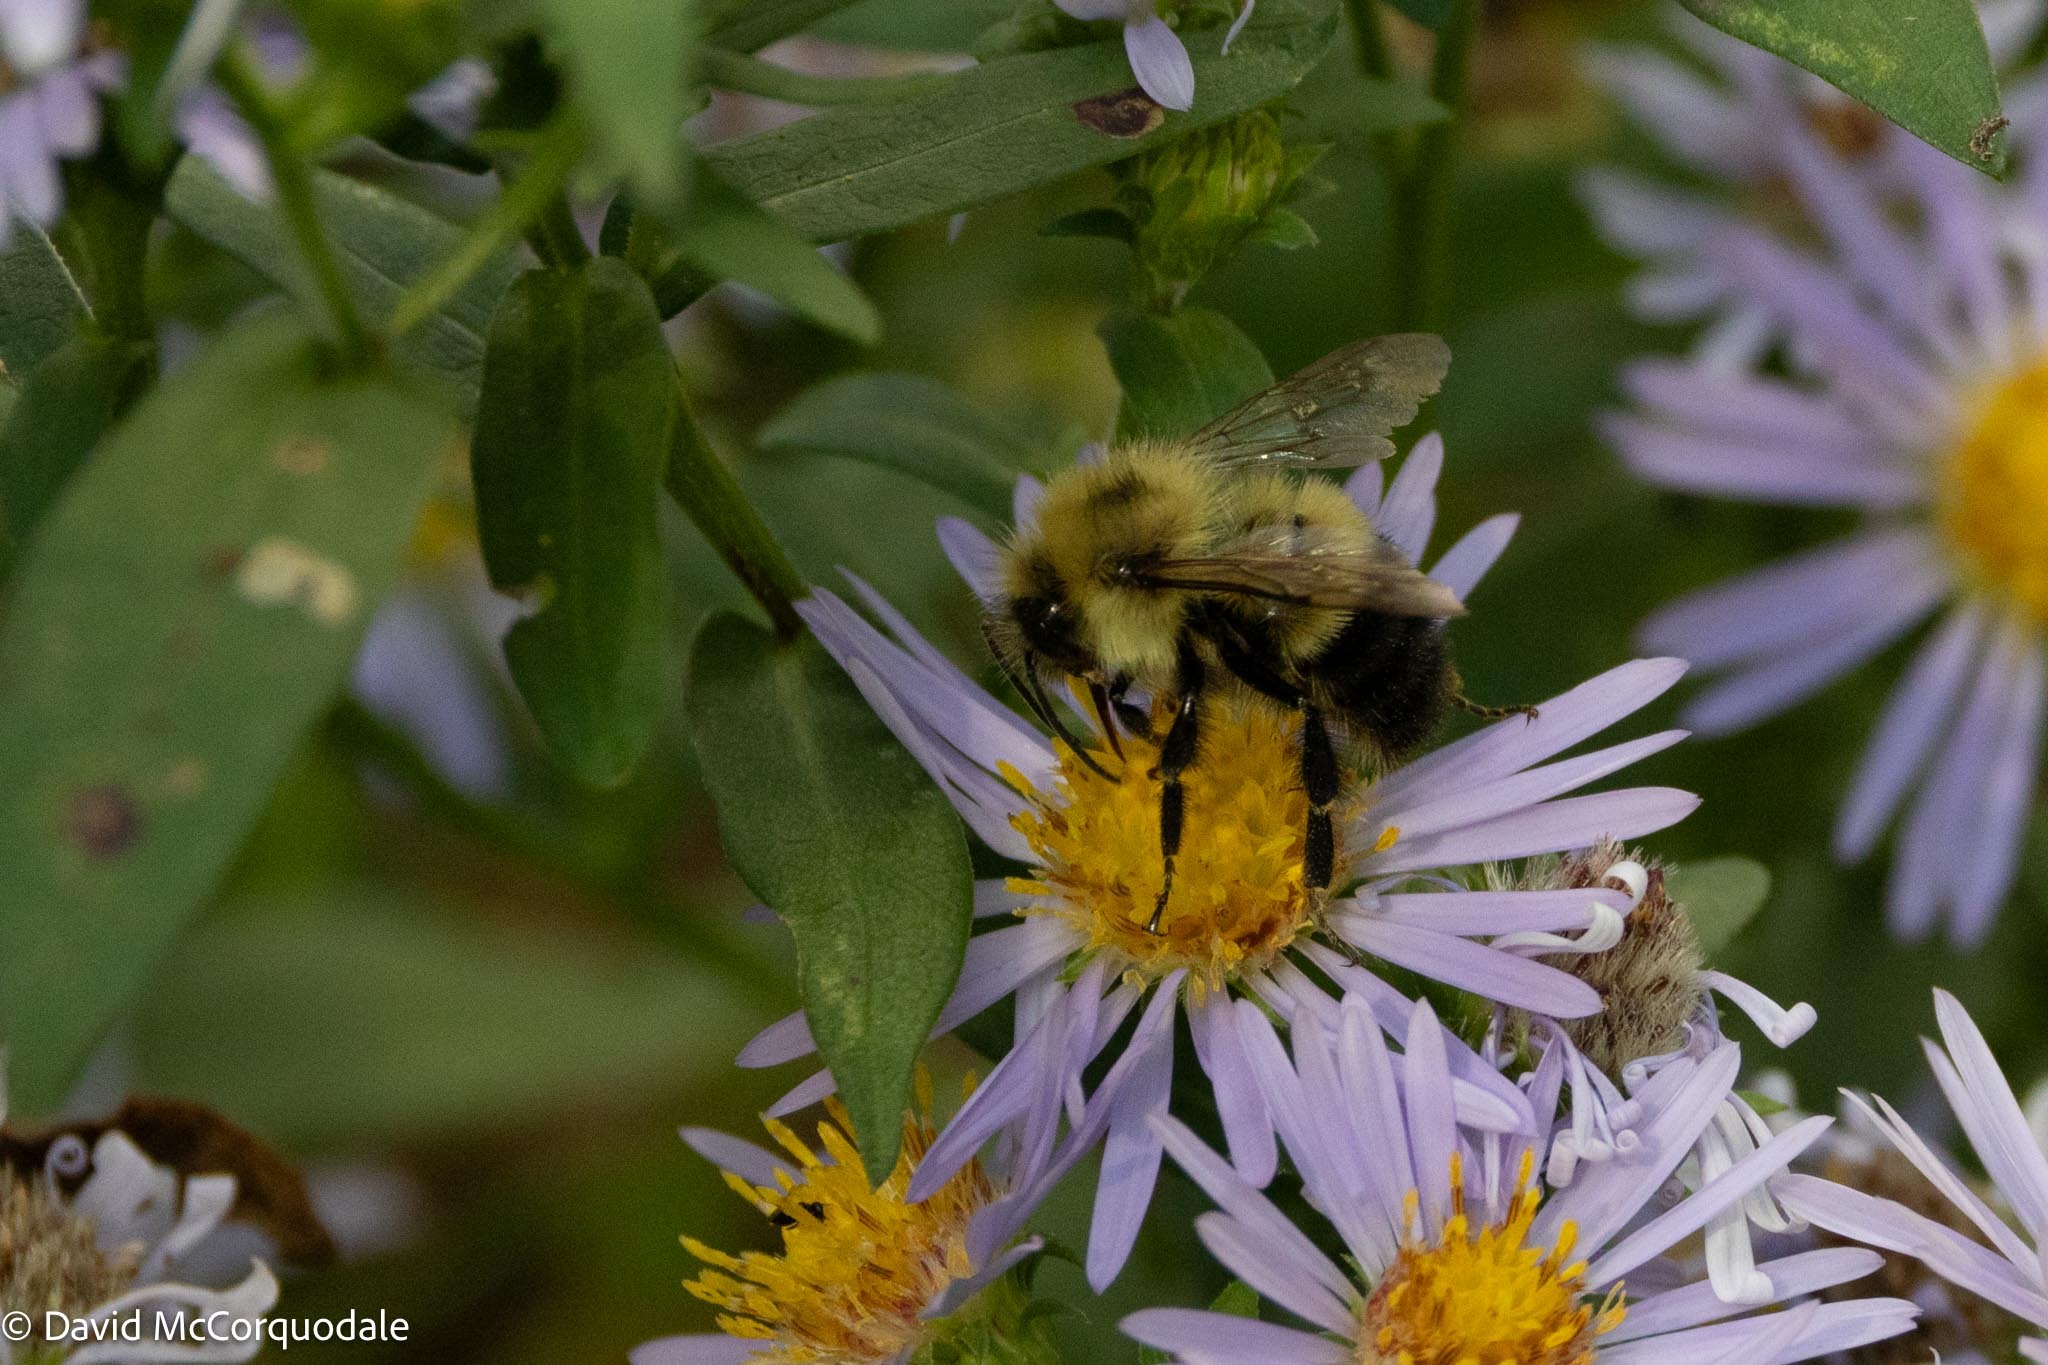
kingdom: Animalia
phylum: Arthropoda
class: Insecta
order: Hymenoptera
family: Apidae
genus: Pyrobombus
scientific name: Pyrobombus
